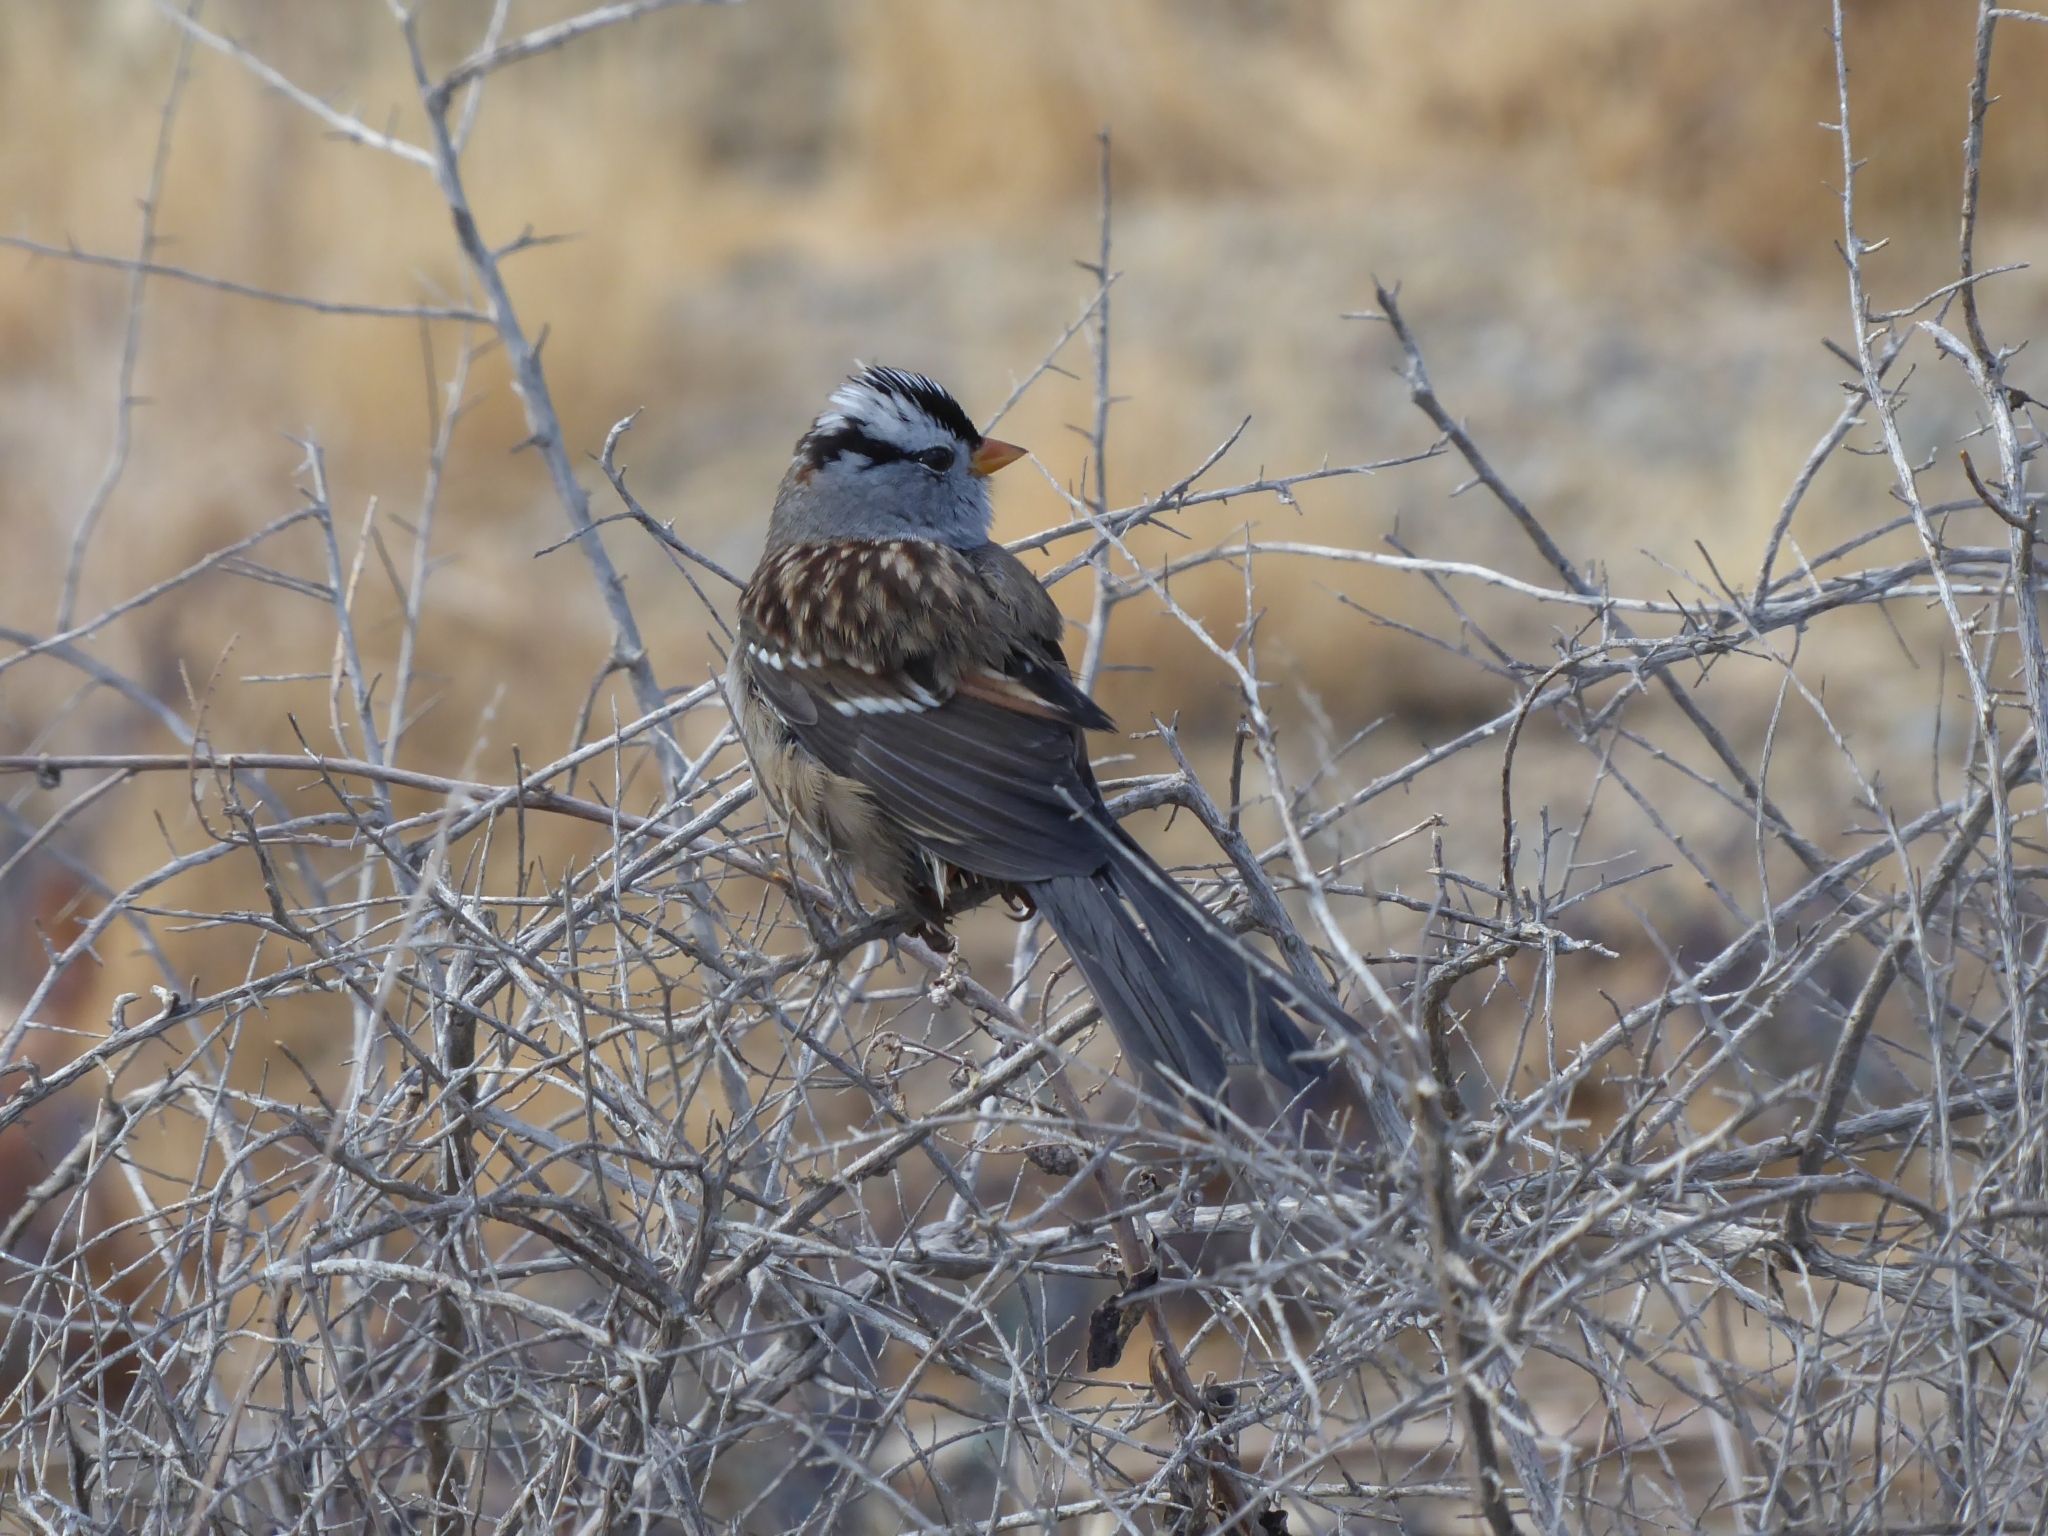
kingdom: Animalia
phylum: Chordata
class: Aves
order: Passeriformes
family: Passerellidae
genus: Zonotrichia
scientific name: Zonotrichia leucophrys
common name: White-crowned sparrow
